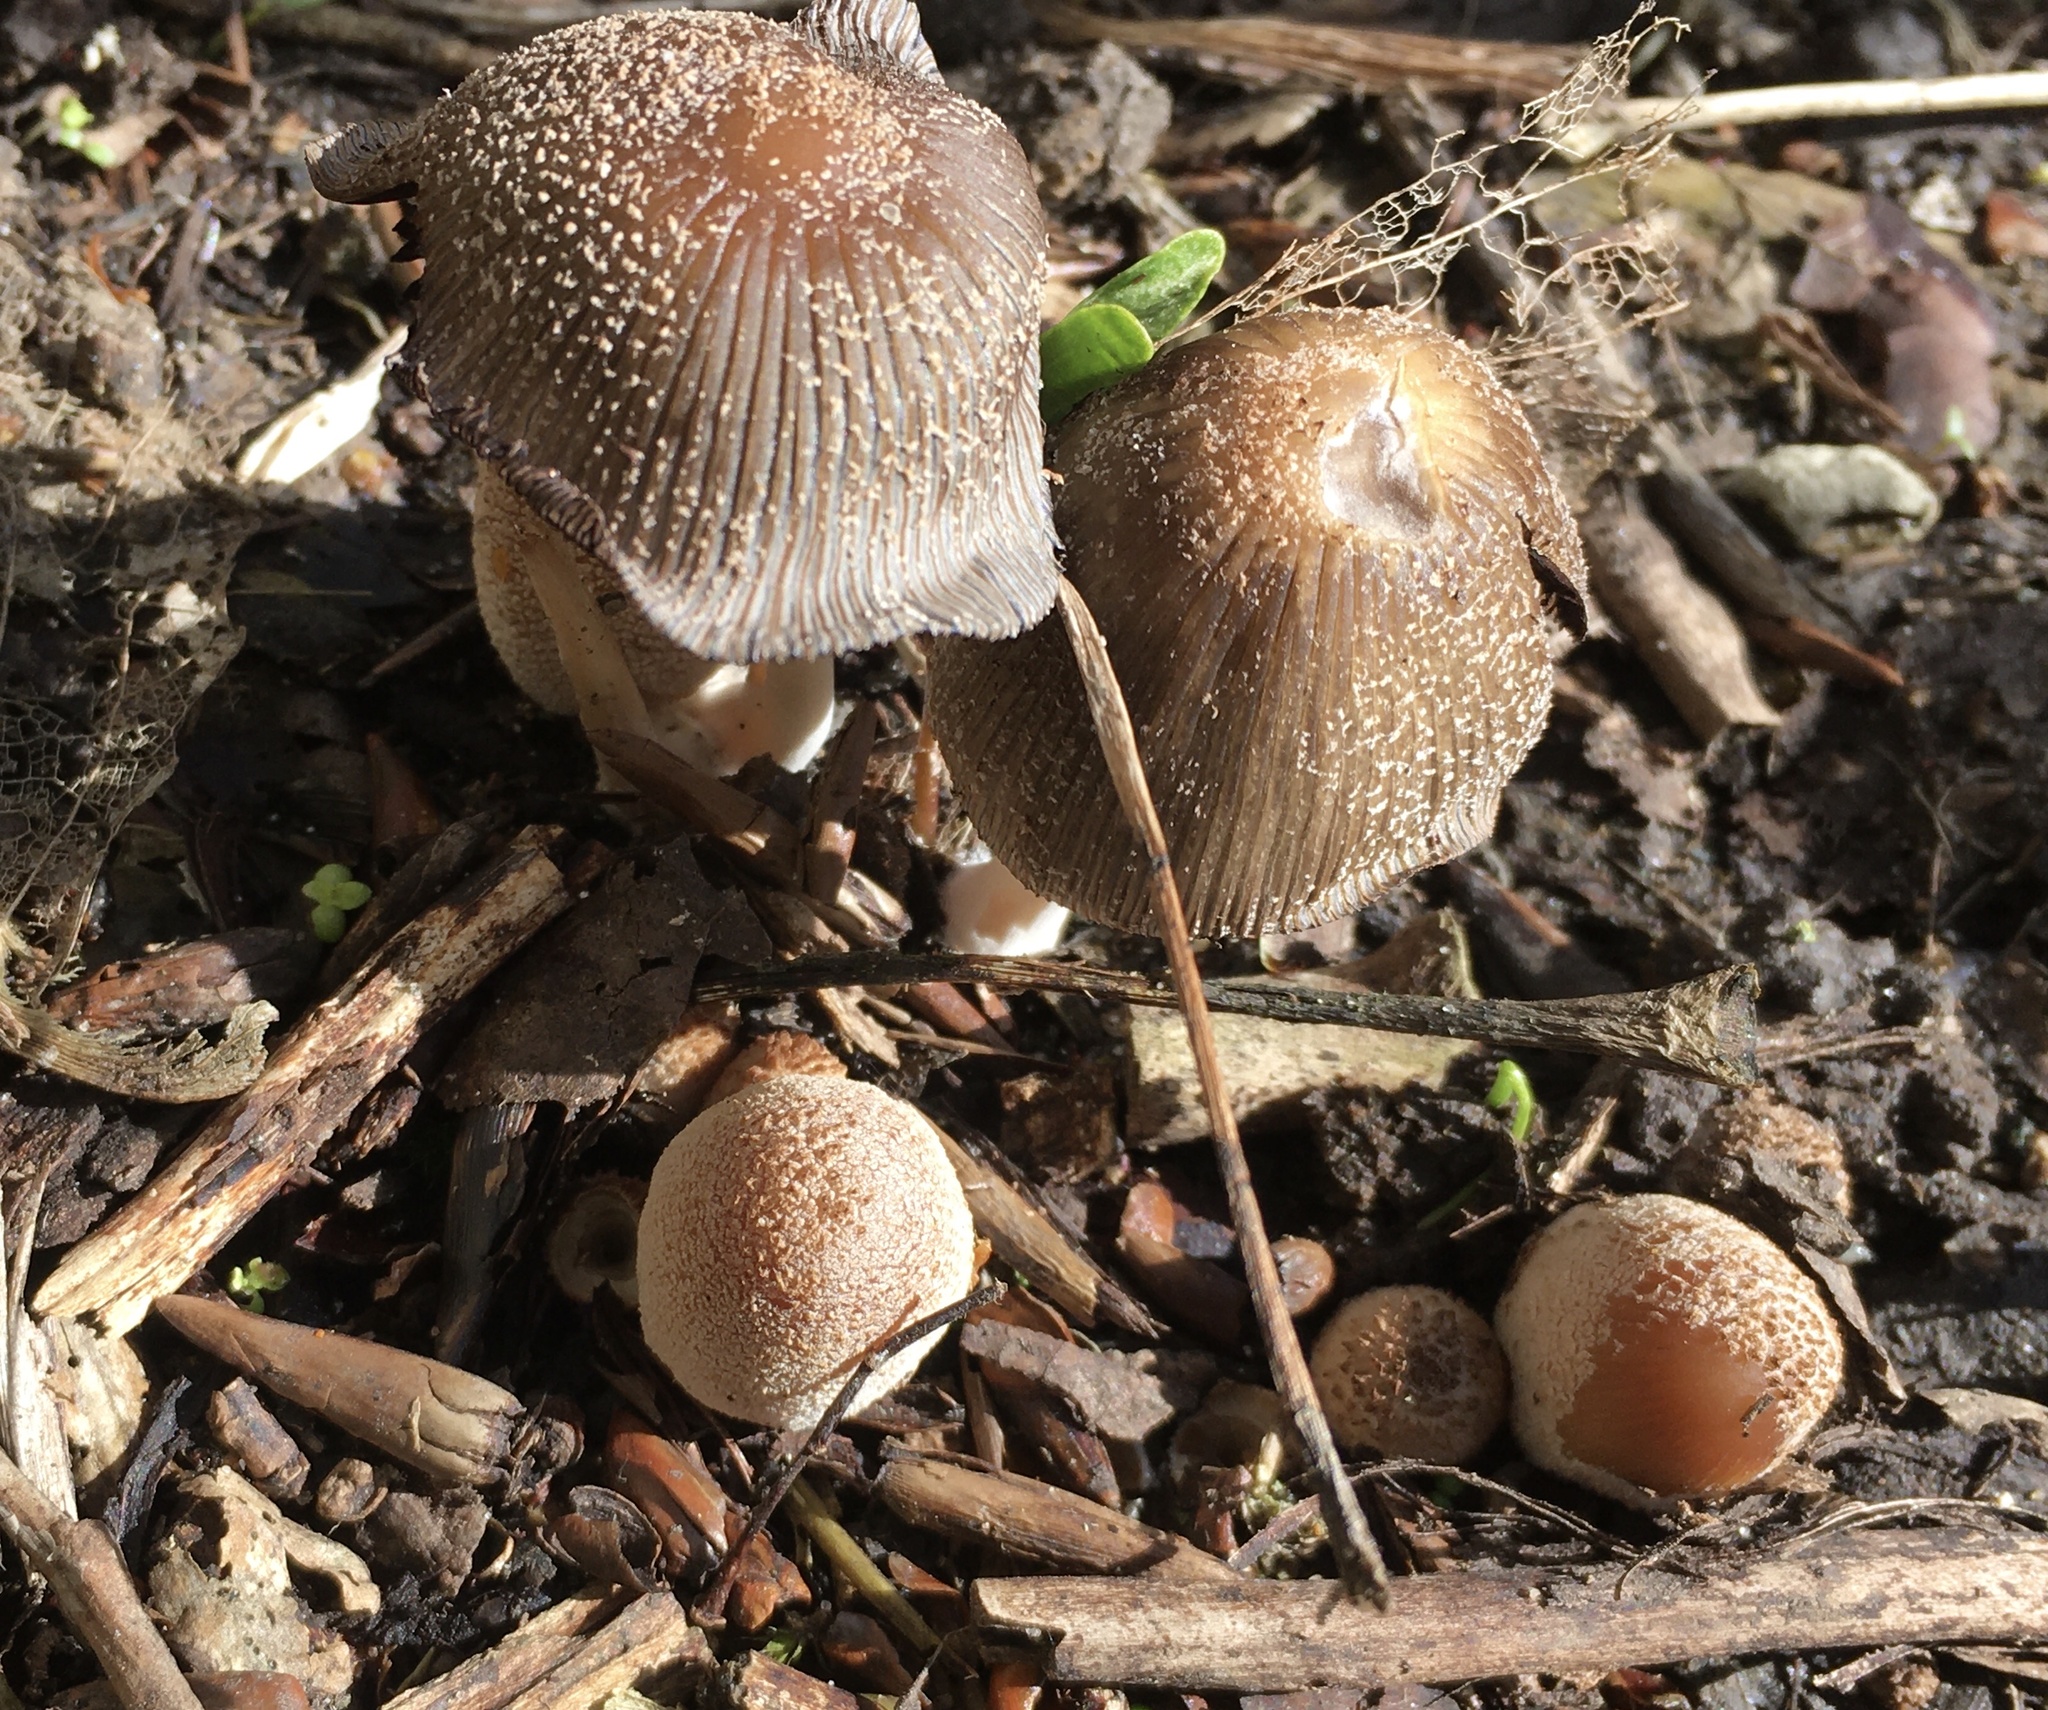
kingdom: Fungi
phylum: Basidiomycota
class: Agaricomycetes
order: Agaricales
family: Psathyrellaceae
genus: Coprinellus
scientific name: Coprinellus micaceus
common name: Glistening ink-cap
